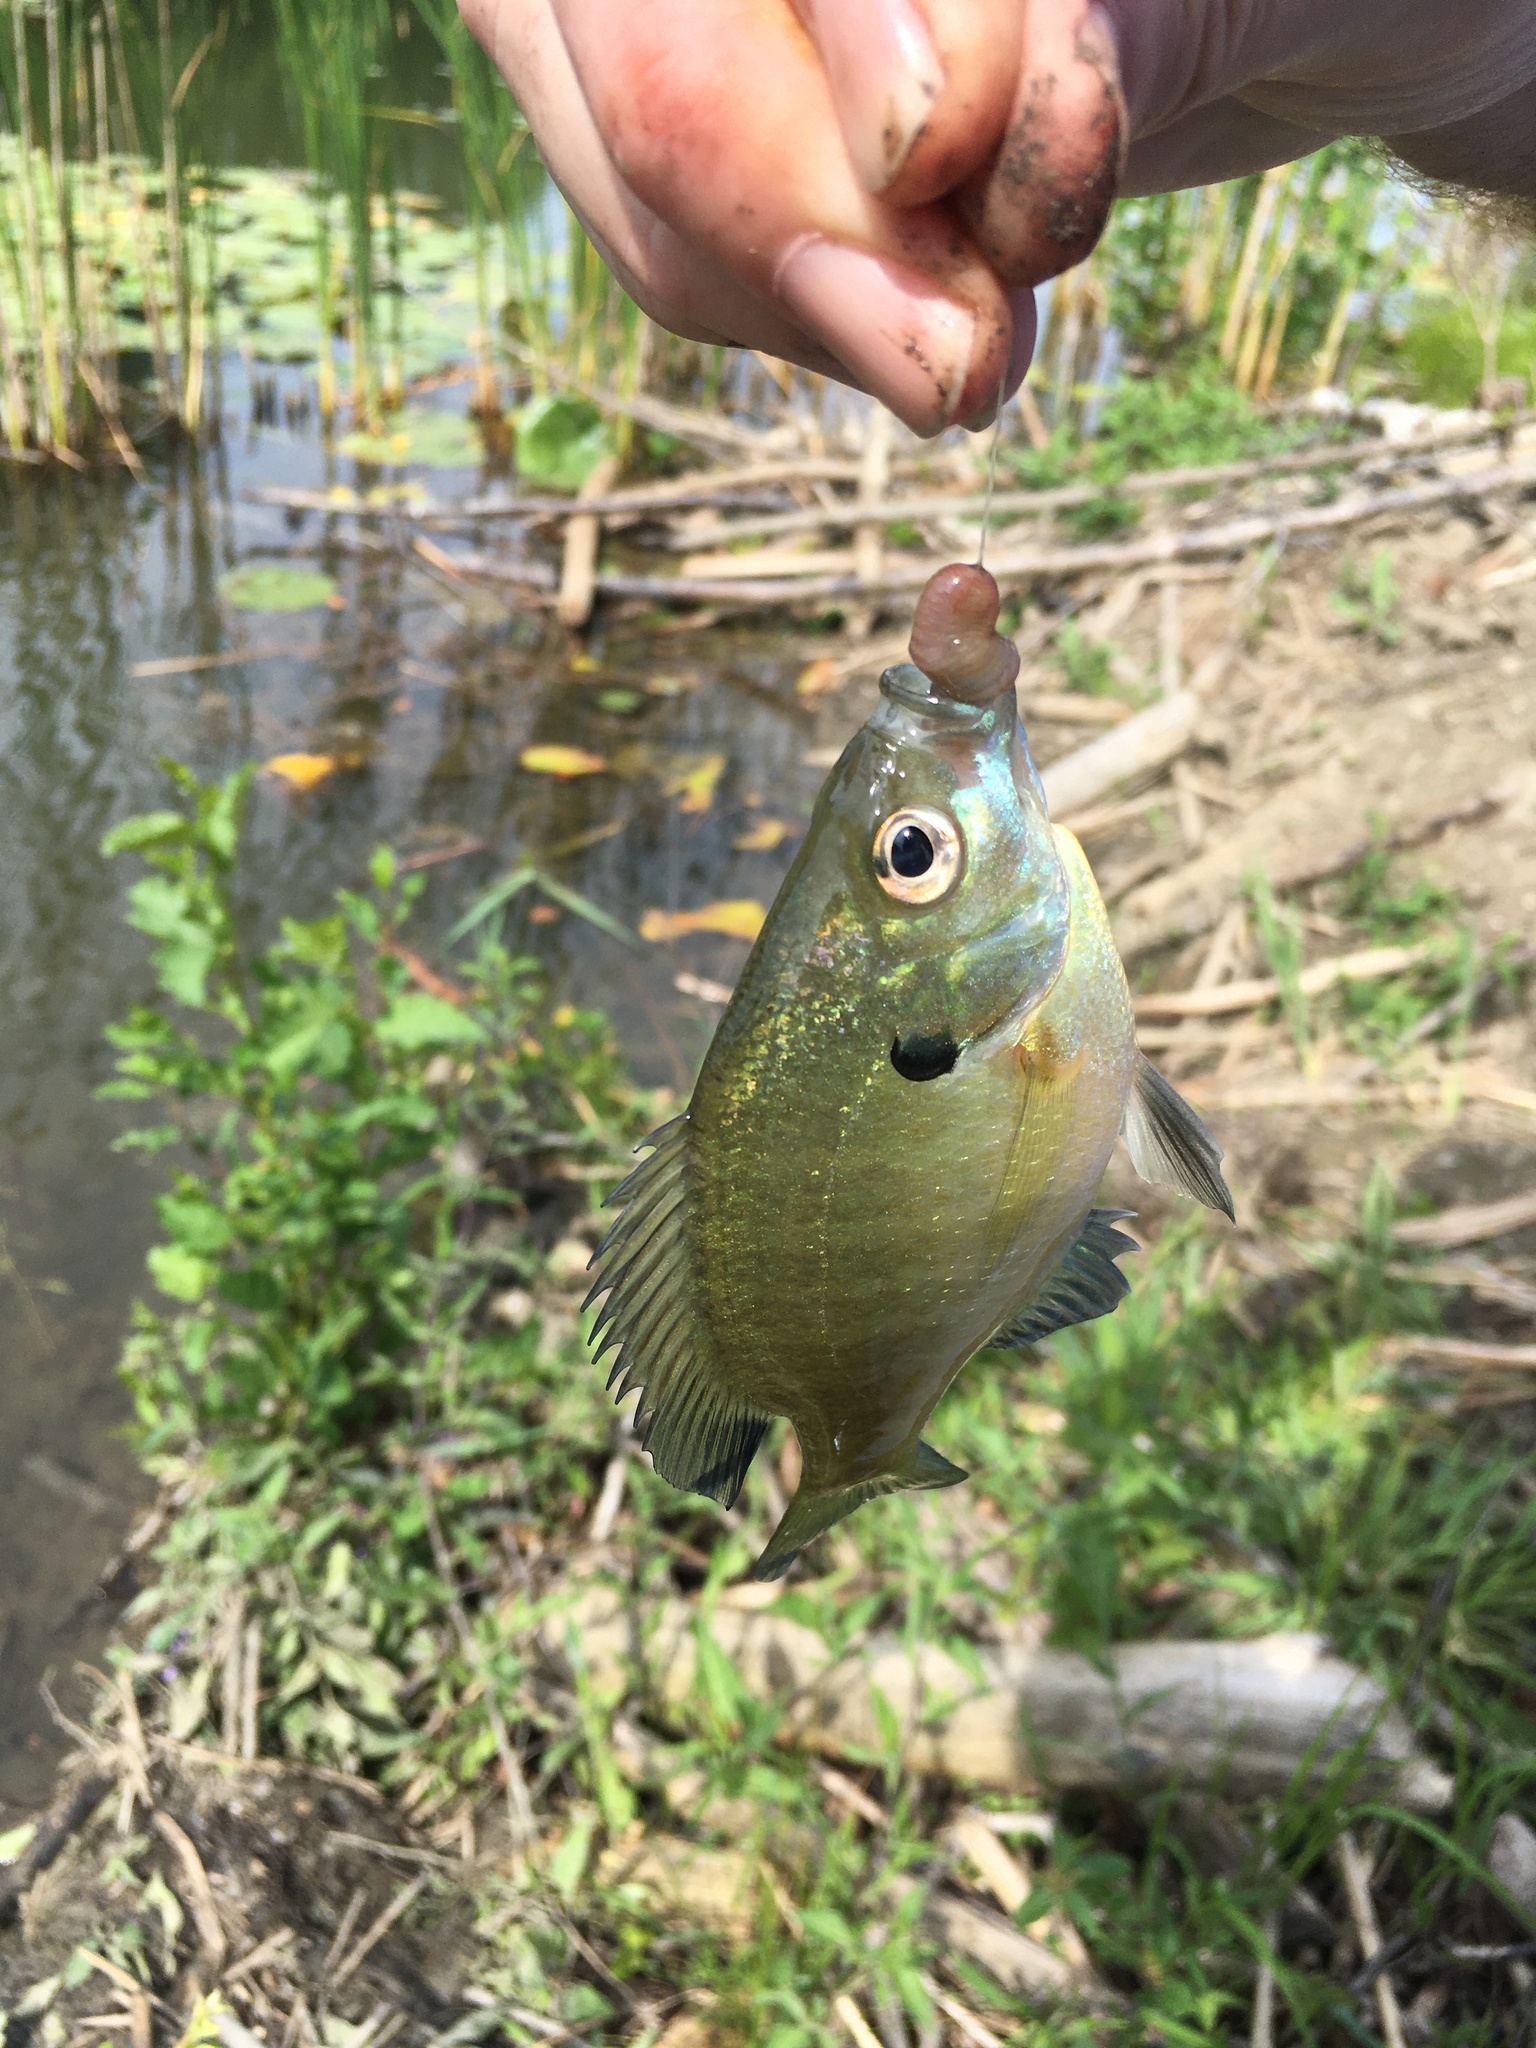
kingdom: Animalia
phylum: Chordata
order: Perciformes
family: Centrarchidae
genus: Lepomis
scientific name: Lepomis macrochirus
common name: Bluegill
